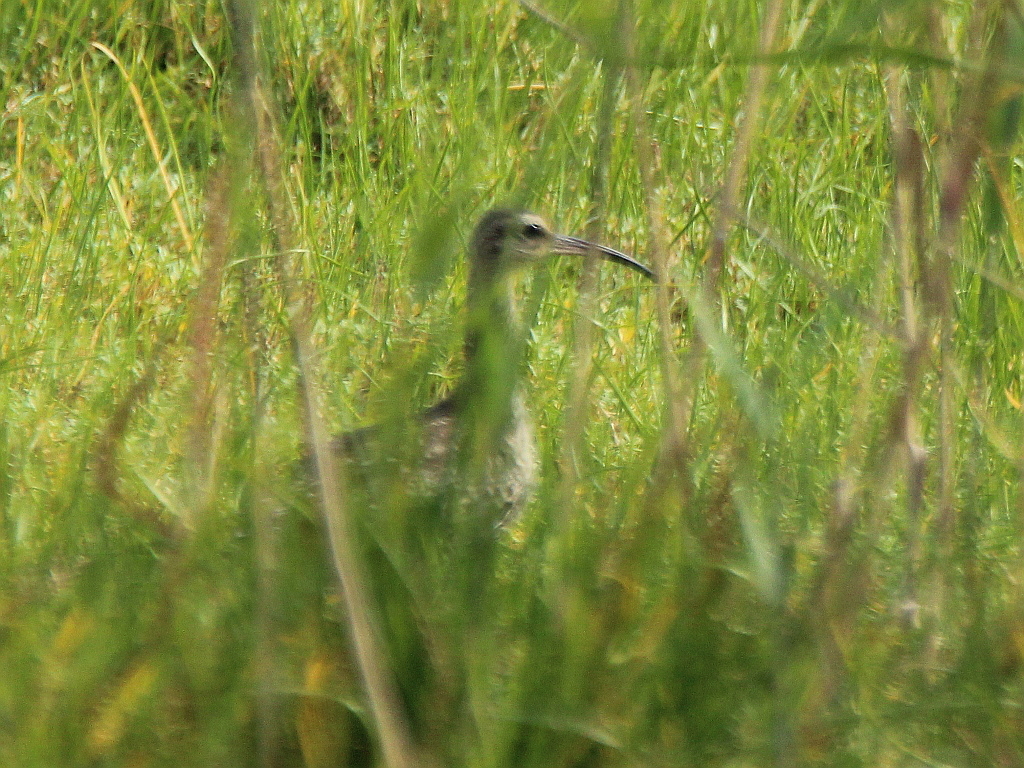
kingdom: Animalia
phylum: Chordata
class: Aves
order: Charadriiformes
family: Scolopacidae
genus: Numenius
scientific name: Numenius phaeopus
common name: Whimbrel
